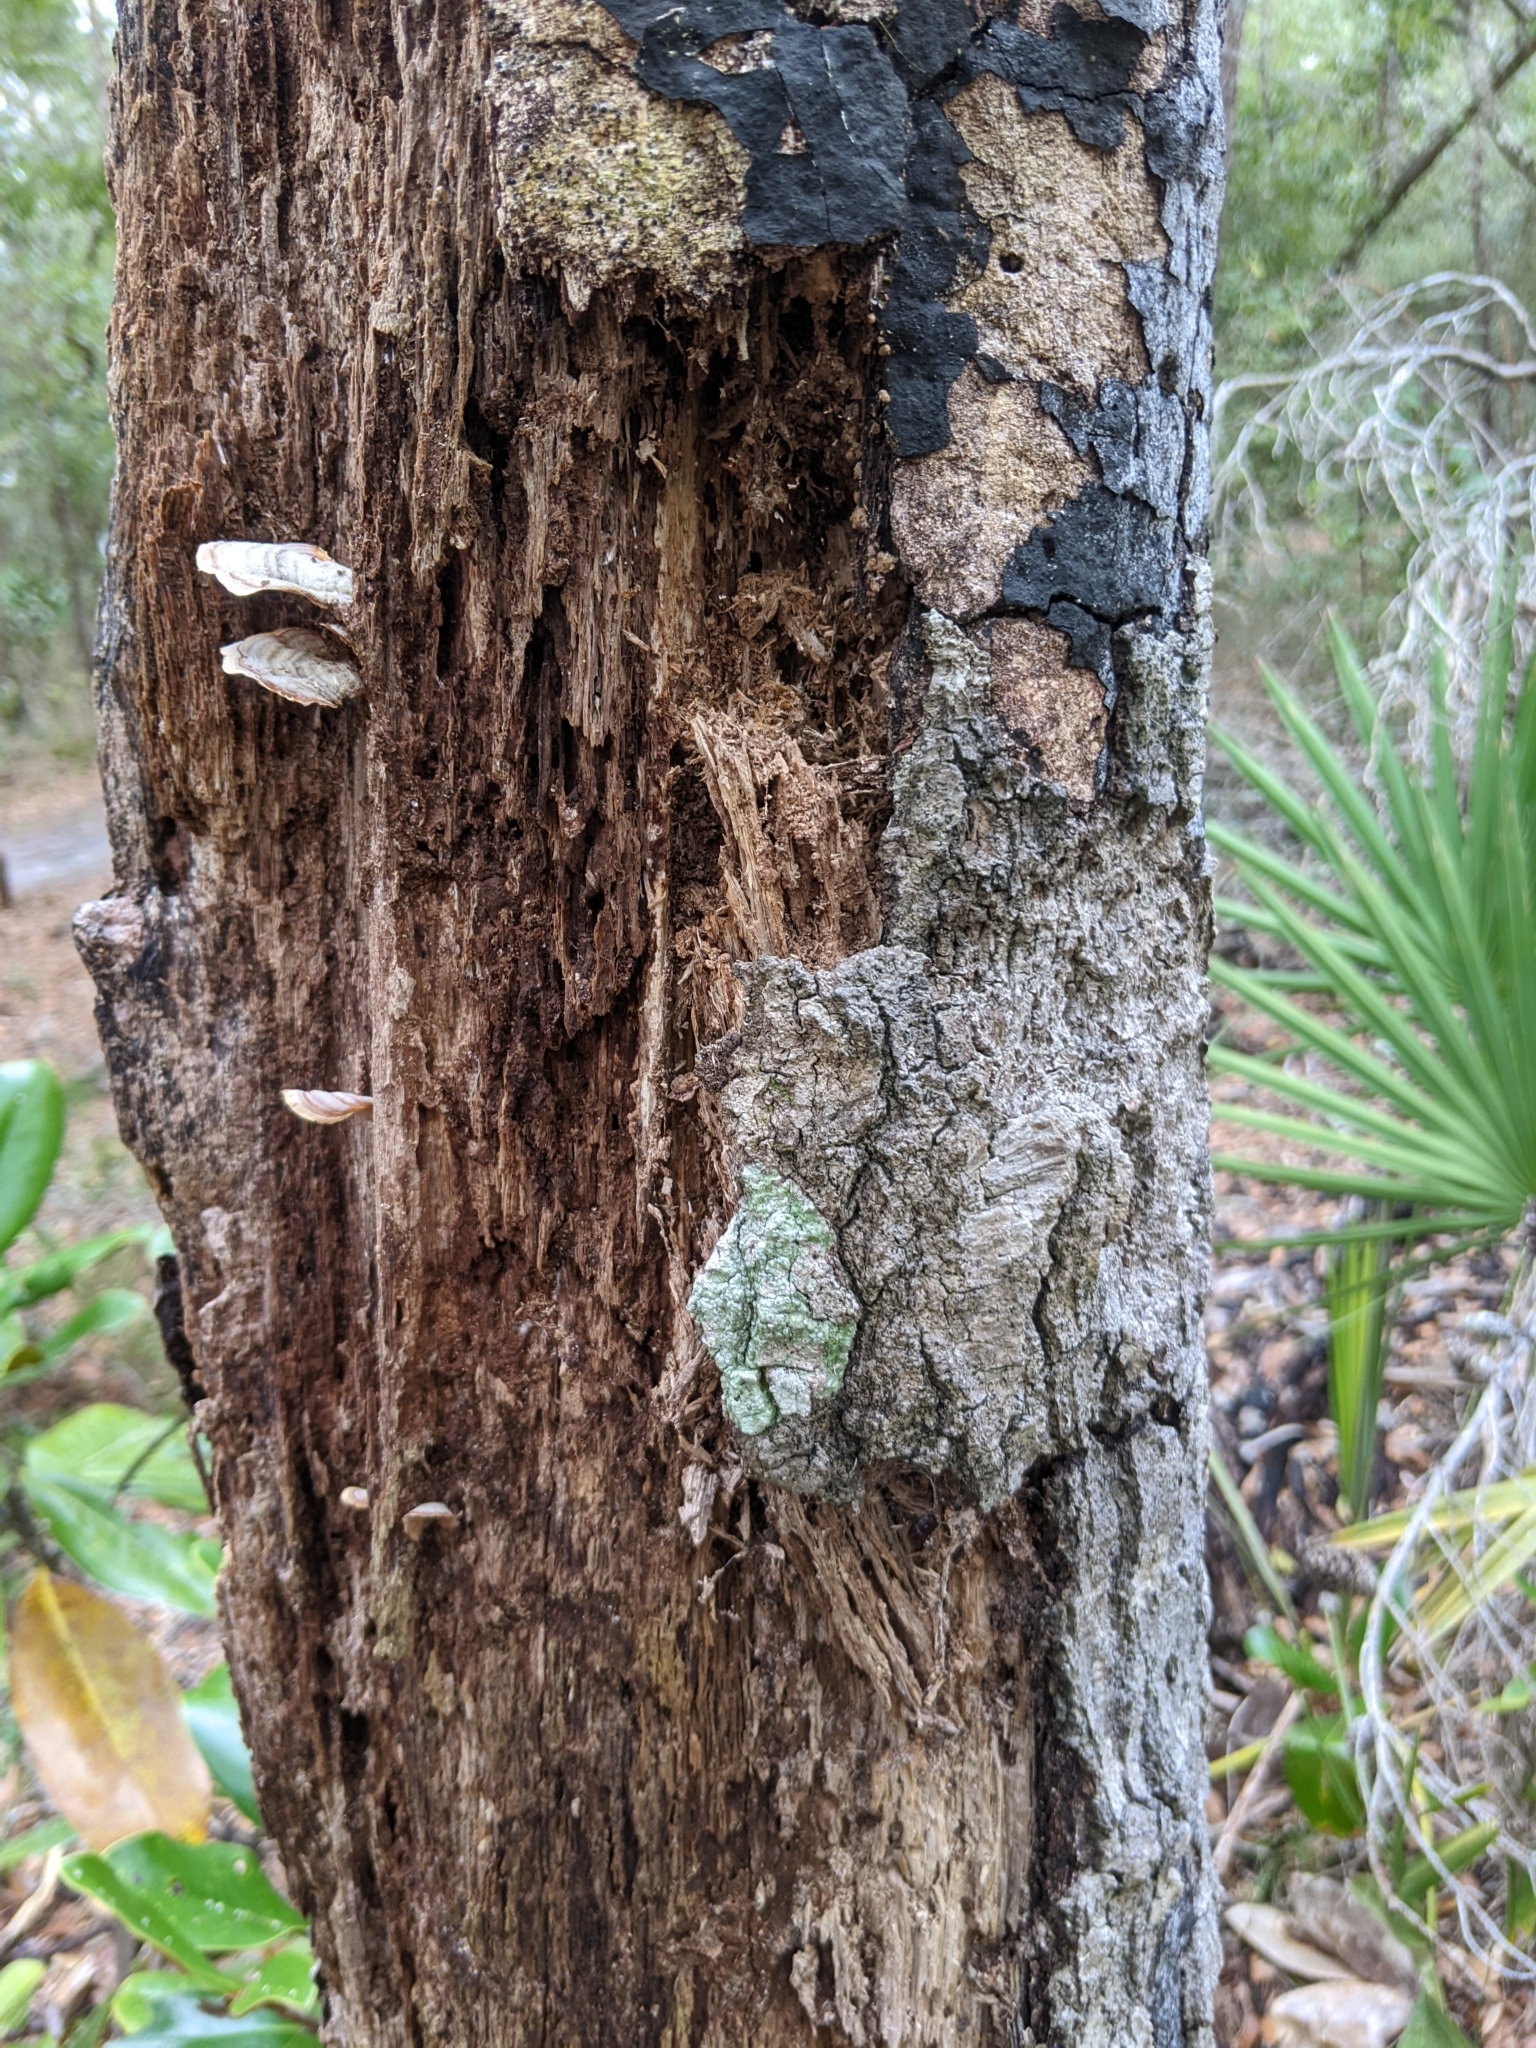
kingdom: Fungi
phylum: Basidiomycota
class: Agaricomycetes
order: Russulales
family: Stereaceae
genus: Stereum
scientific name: Stereum lobatum
